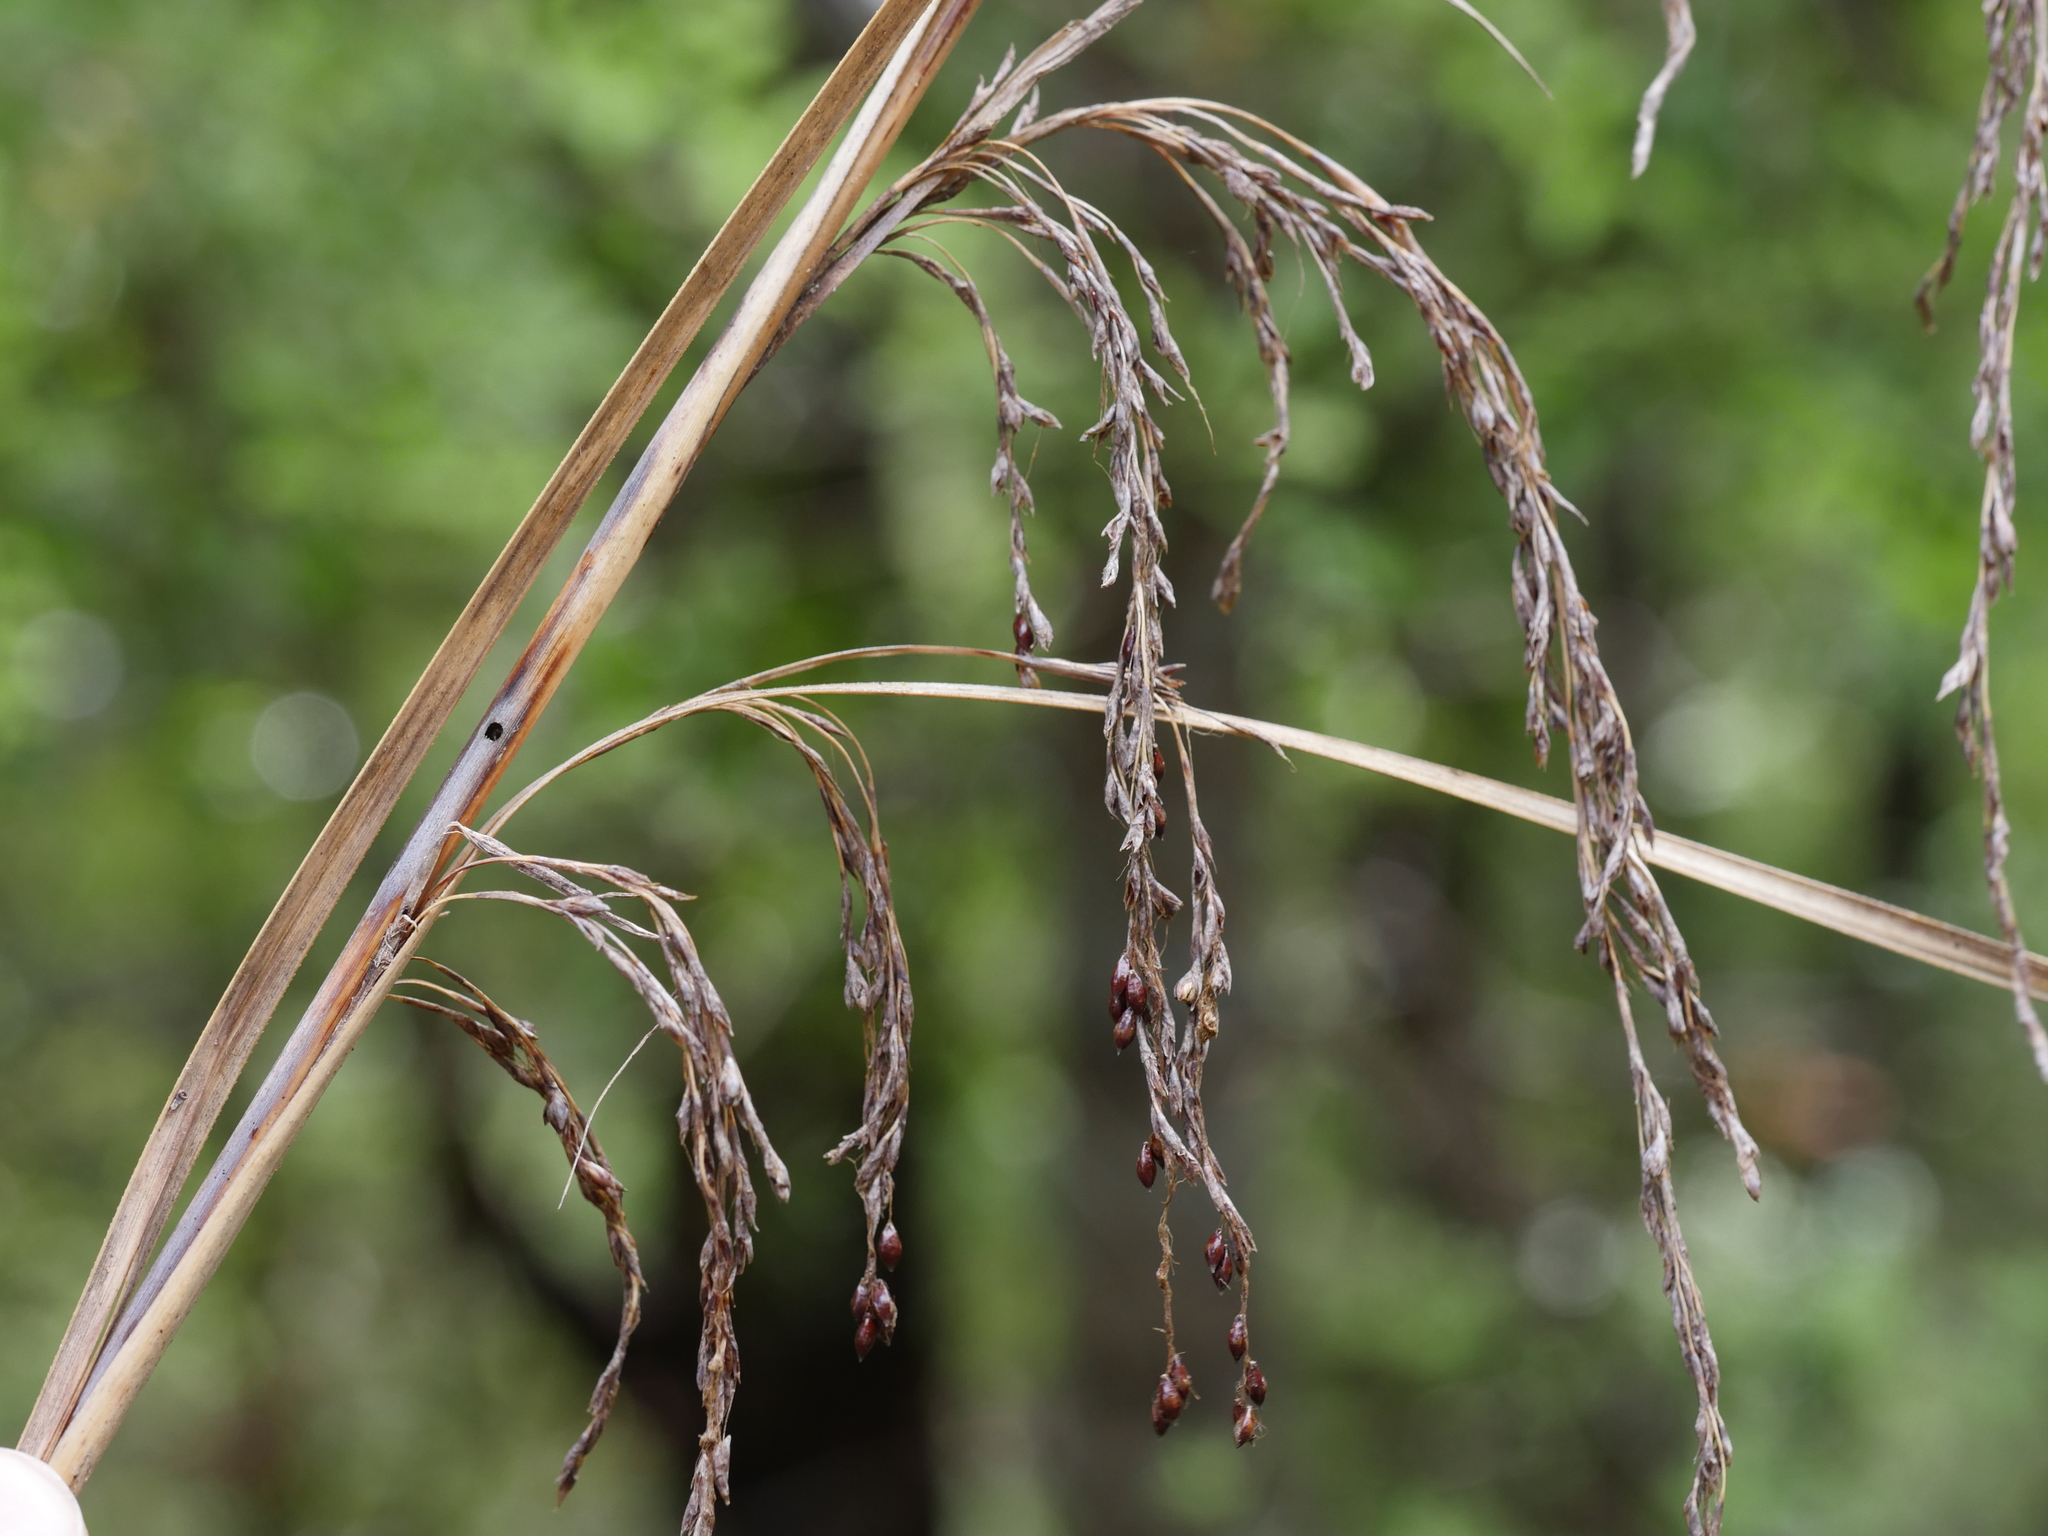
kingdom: Plantae
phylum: Tracheophyta
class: Liliopsida
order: Poales
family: Cyperaceae
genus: Gahnia
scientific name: Gahnia setifolia
